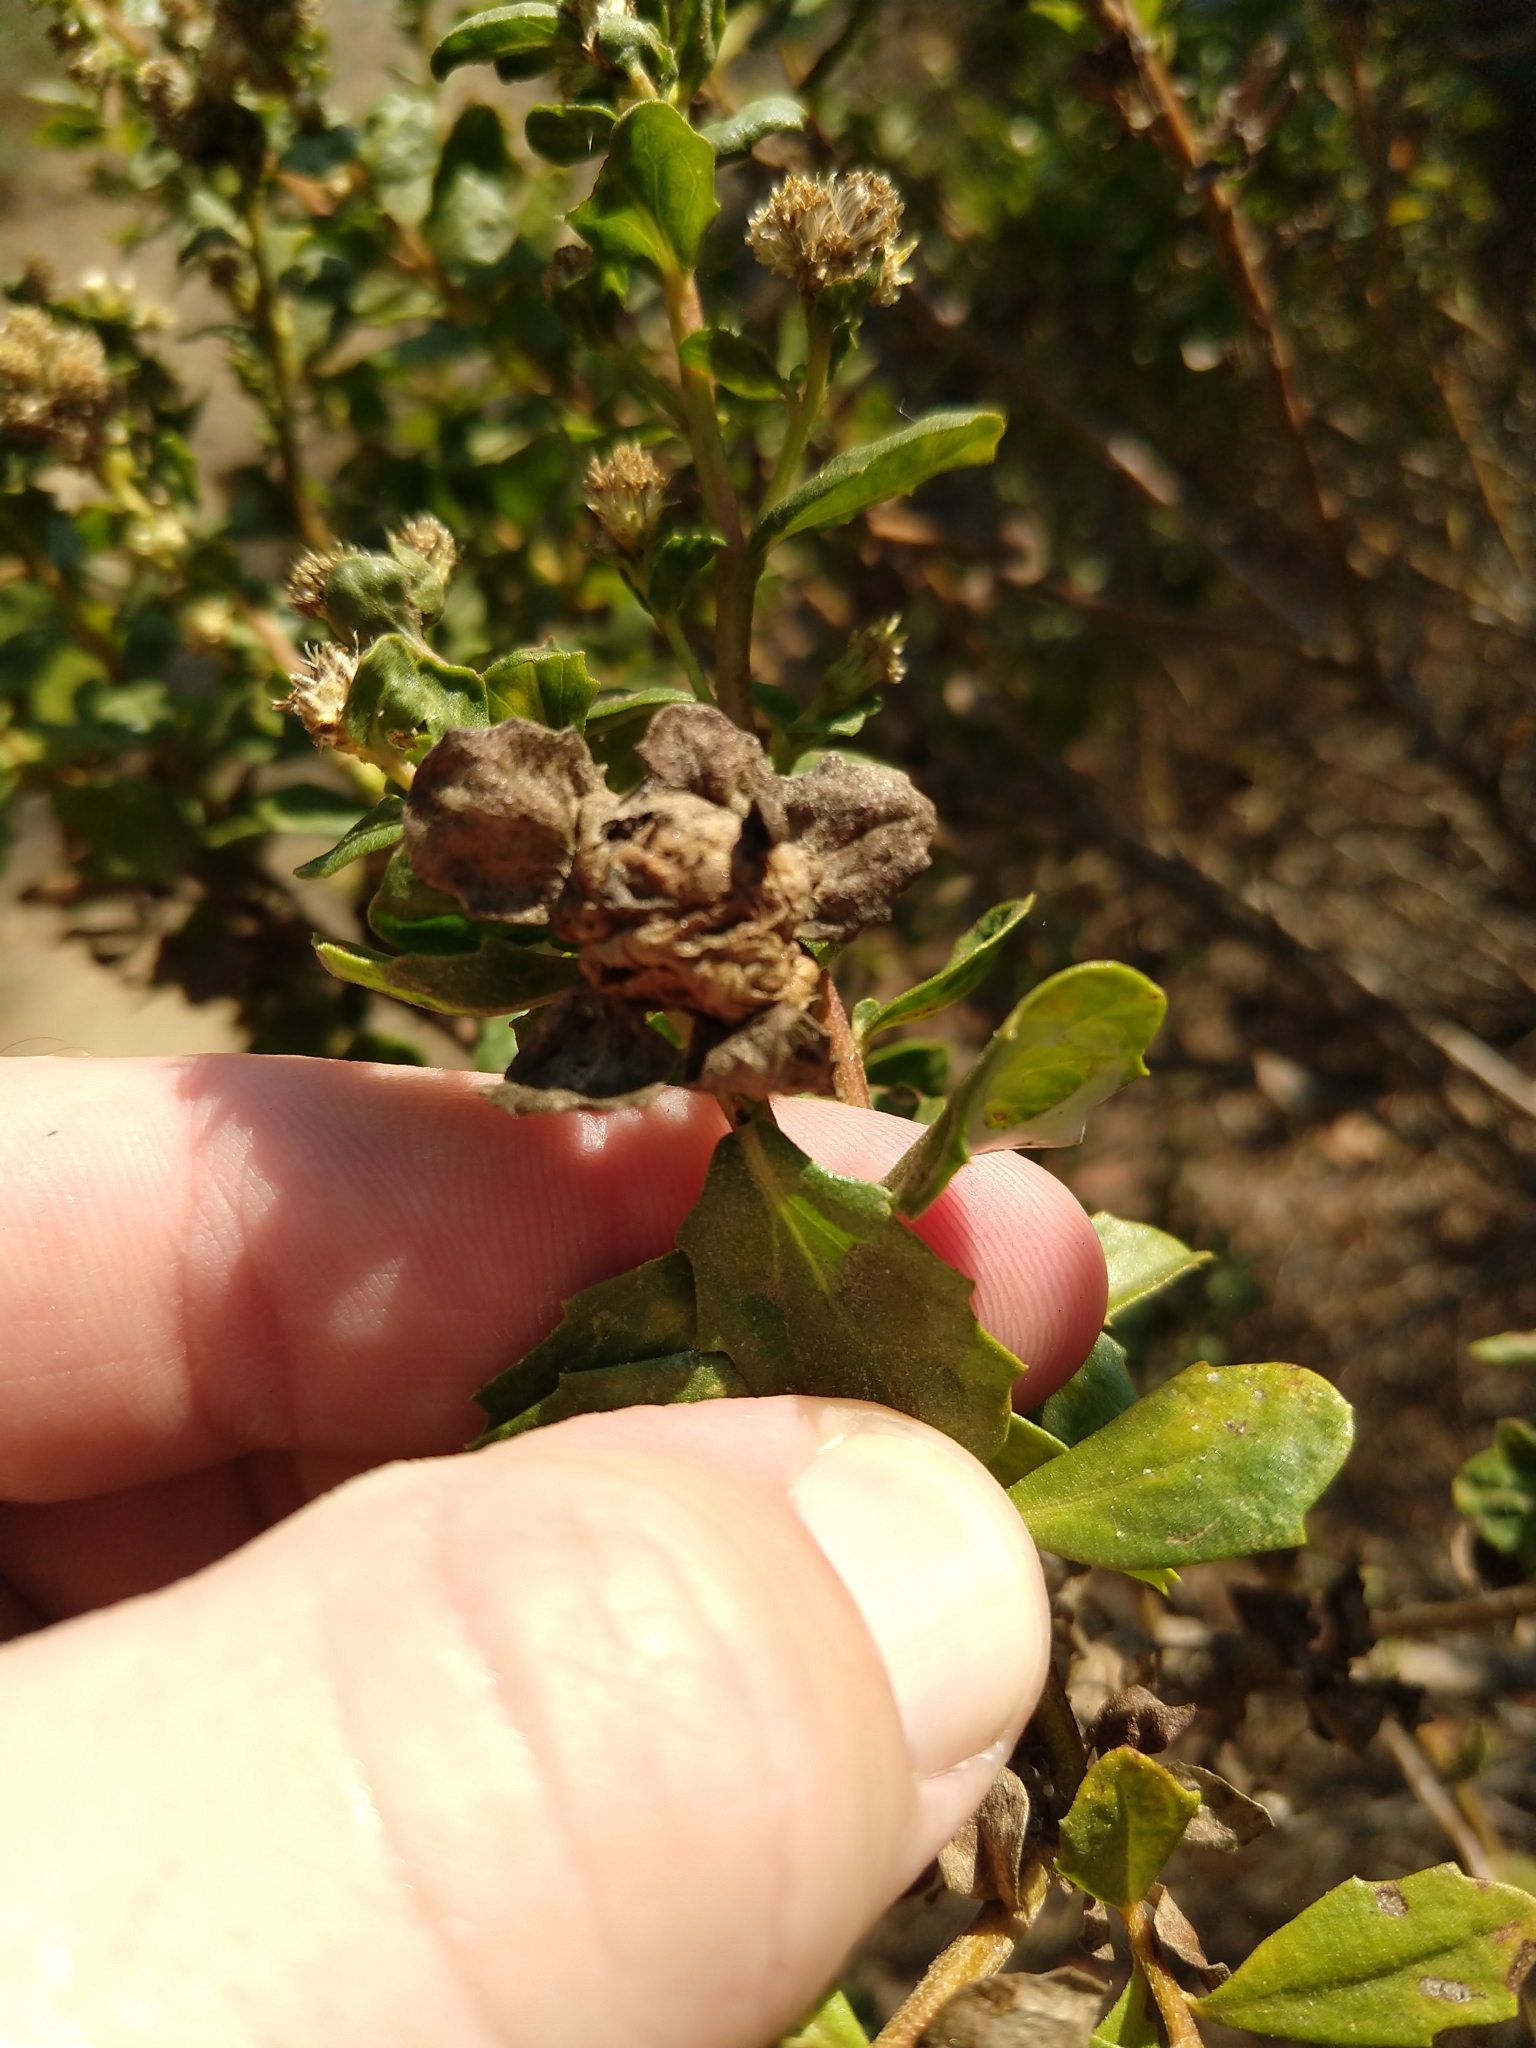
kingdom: Animalia
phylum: Arthropoda
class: Insecta
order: Diptera
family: Cecidomyiidae
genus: Rhopalomyia
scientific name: Rhopalomyia californica
